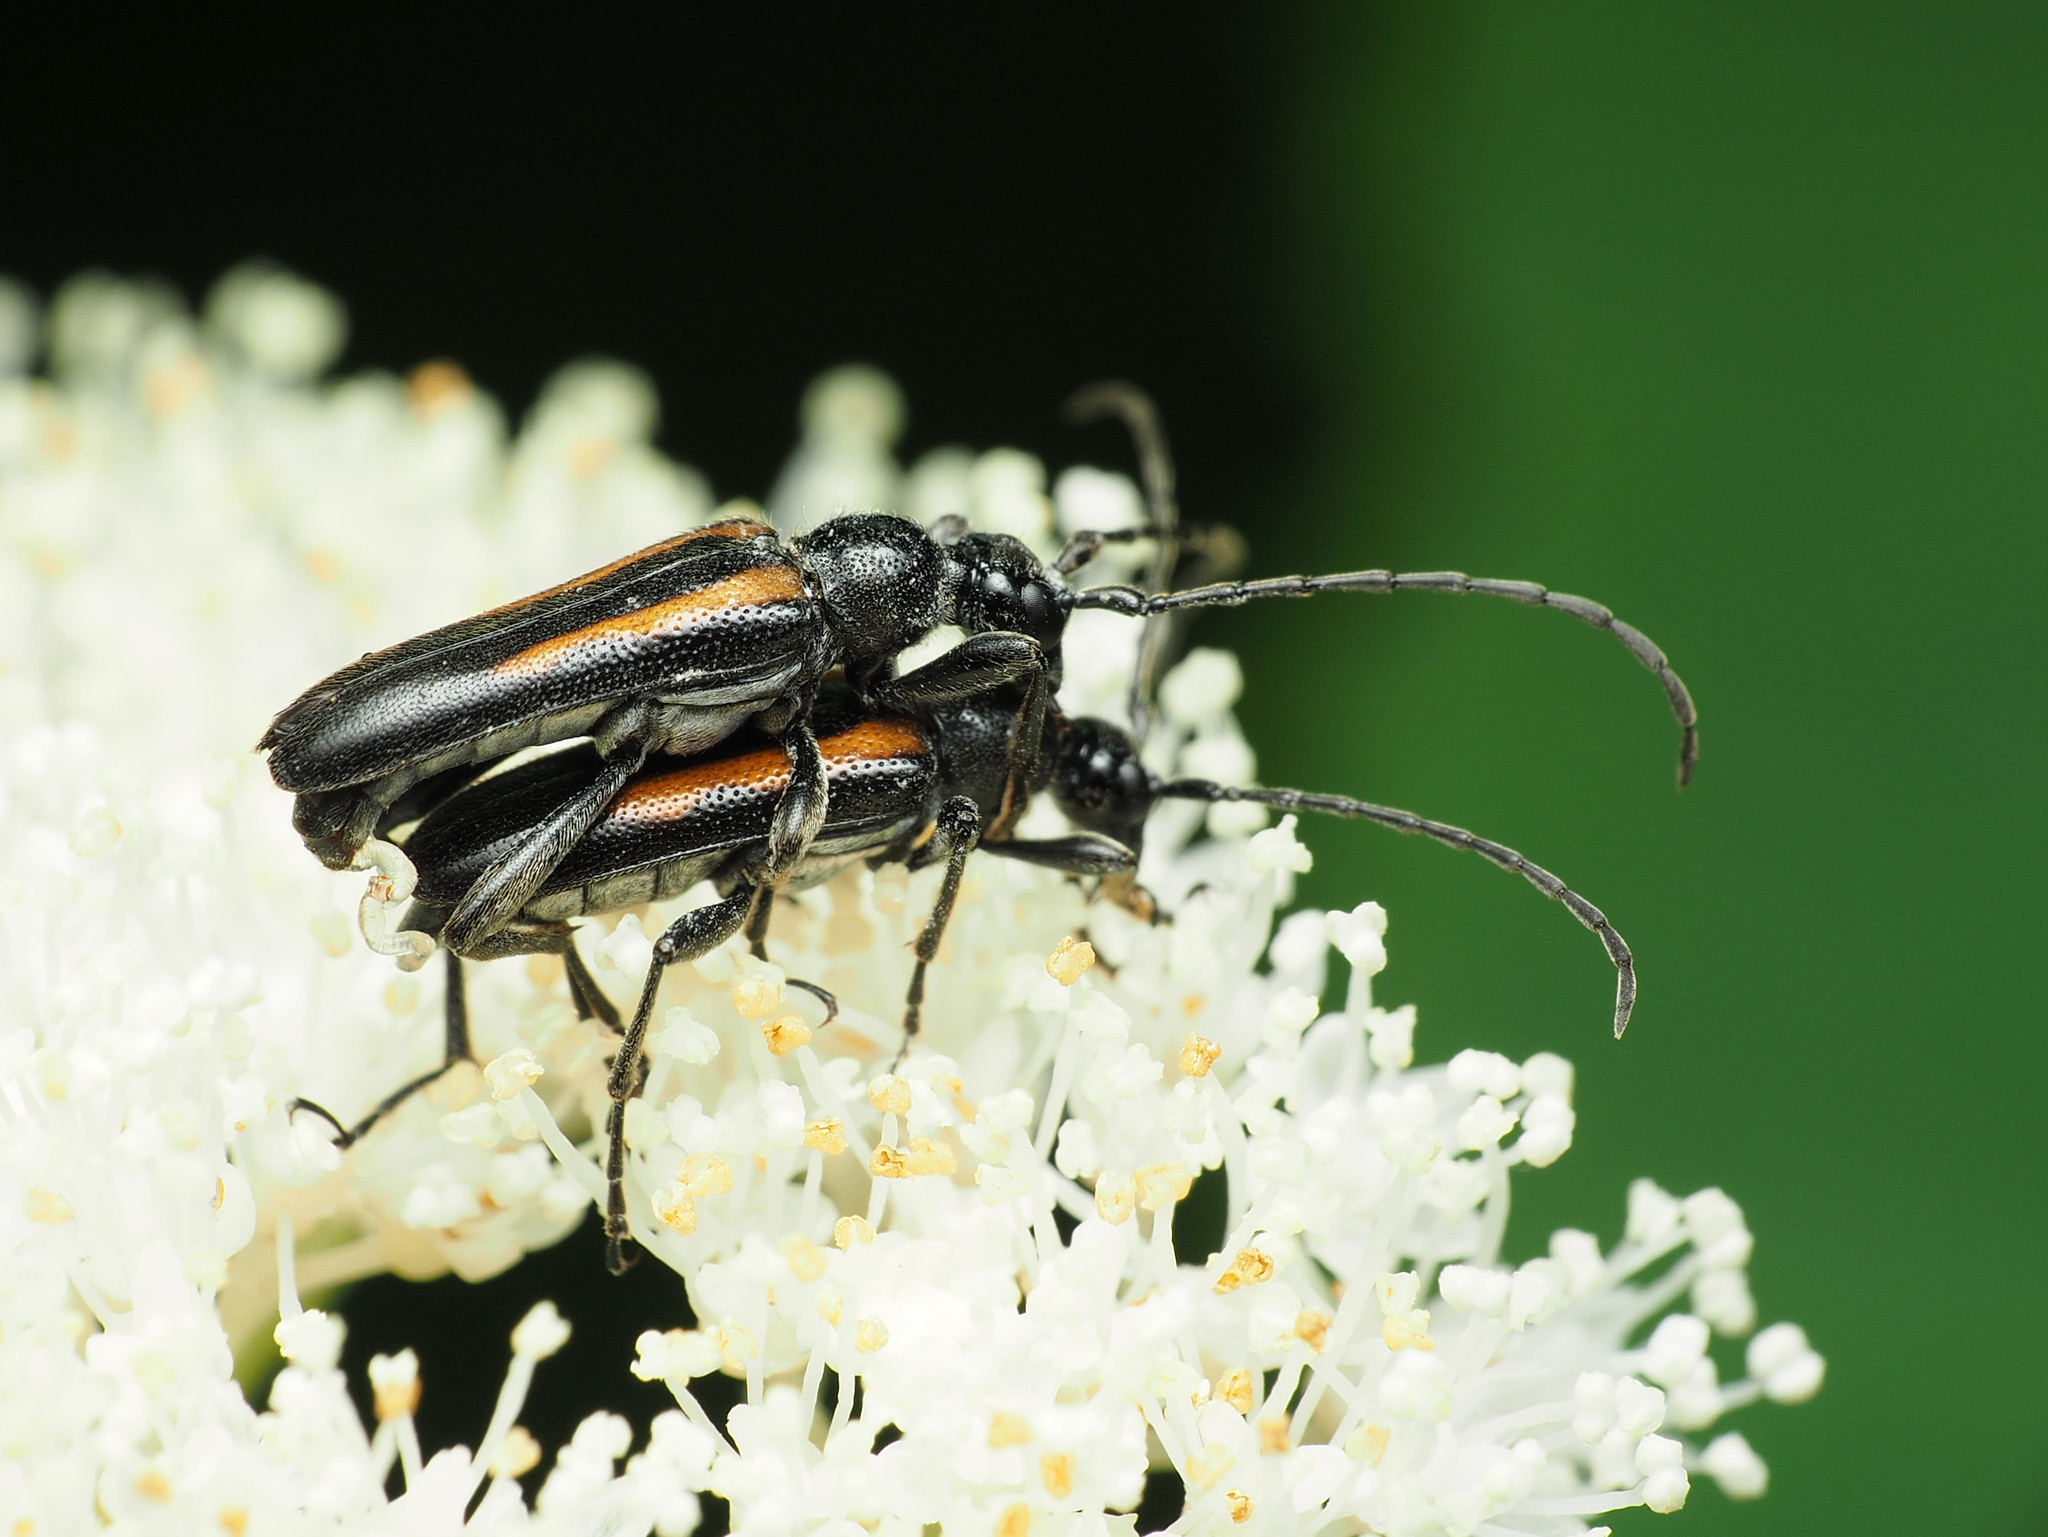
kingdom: Animalia
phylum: Arthropoda
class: Insecta
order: Coleoptera
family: Cerambycidae
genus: Strangalepta
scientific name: Strangalepta abbreviata
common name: Strangalepta flower longhorn beetle
